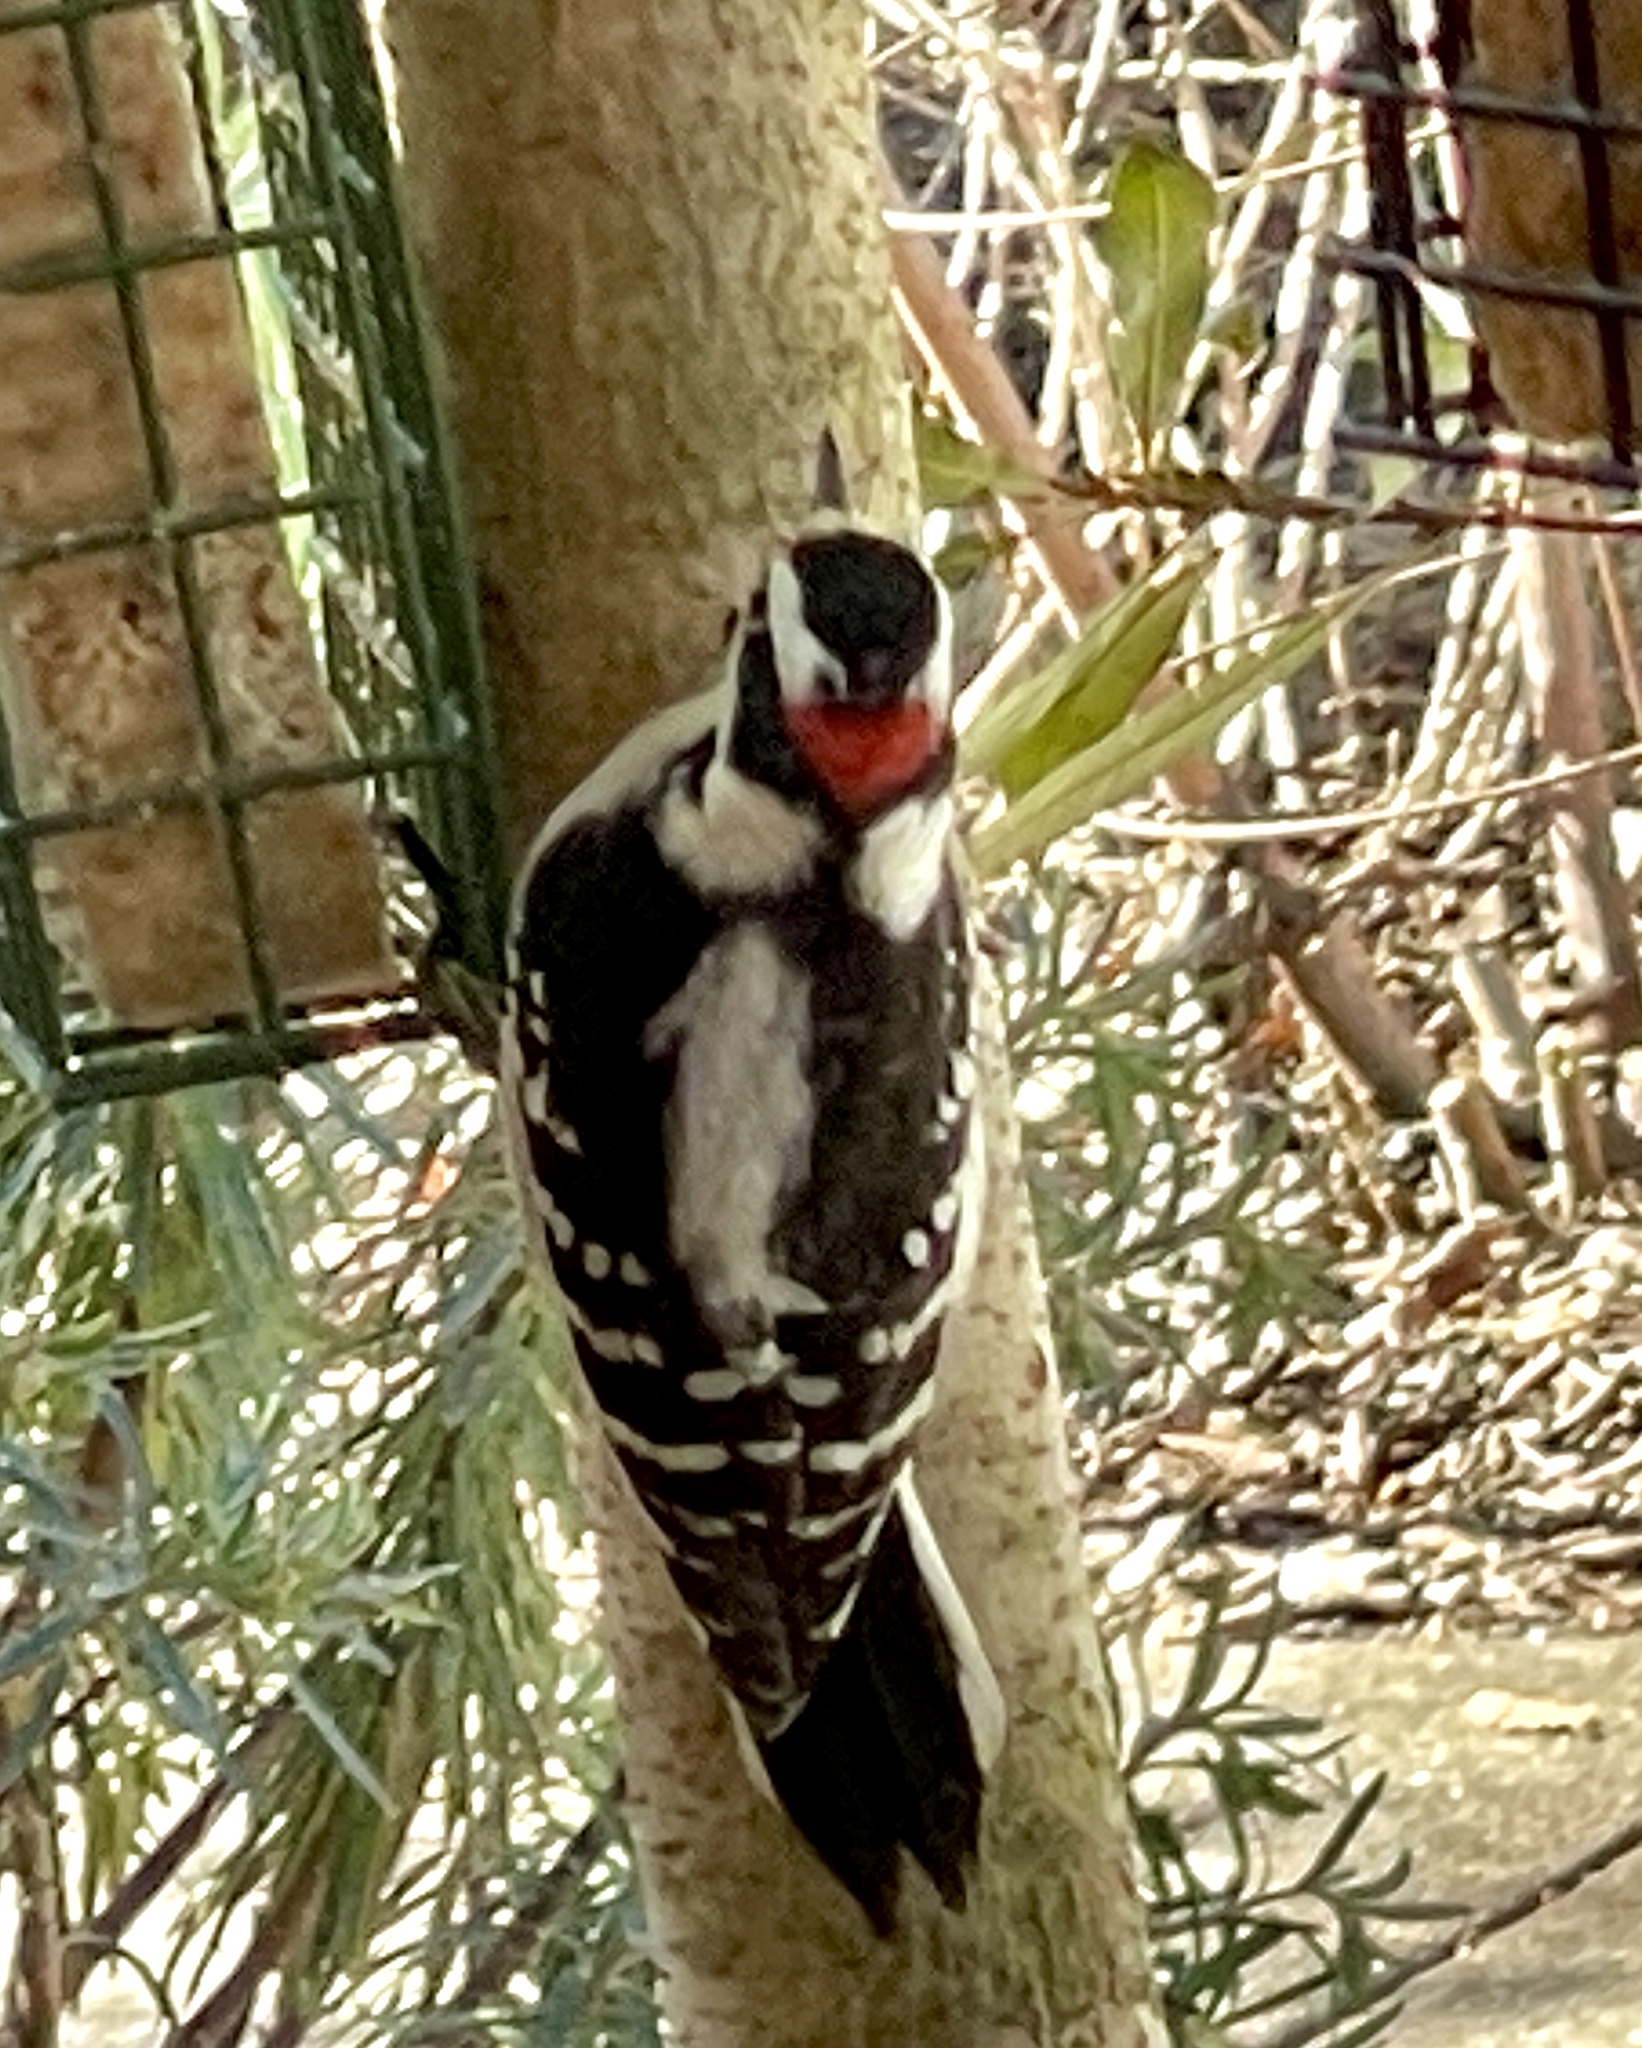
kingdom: Animalia
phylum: Chordata
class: Aves
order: Piciformes
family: Picidae
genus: Dryobates
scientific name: Dryobates pubescens
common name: Downy woodpecker
